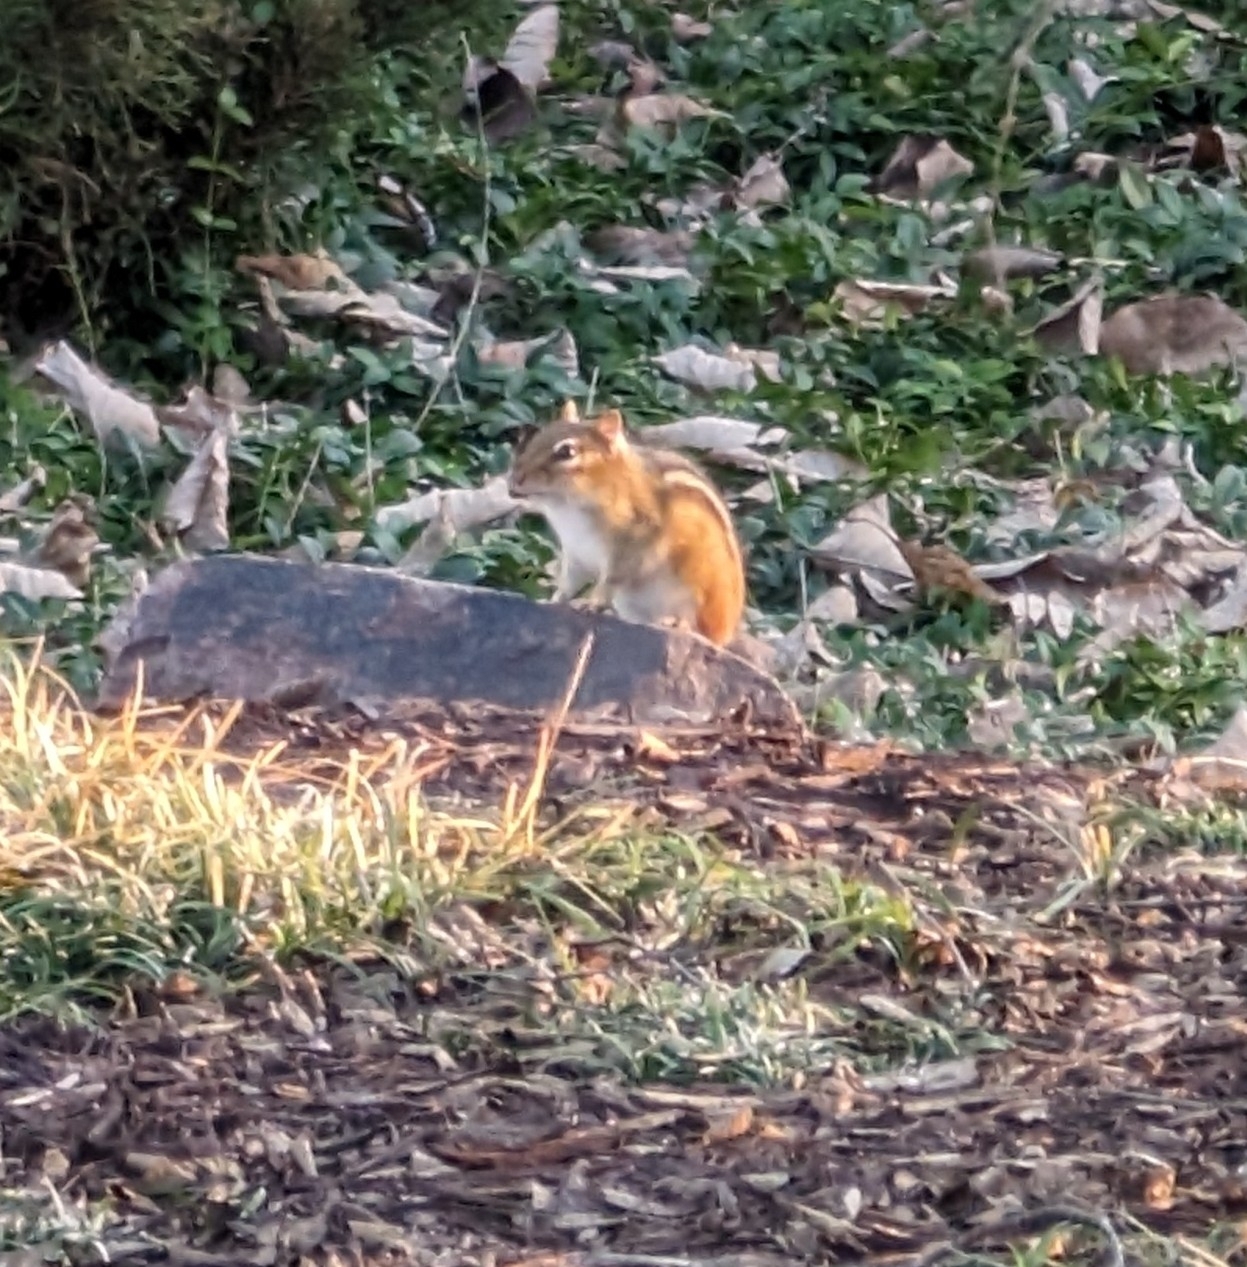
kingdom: Animalia
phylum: Chordata
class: Mammalia
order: Rodentia
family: Sciuridae
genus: Tamias
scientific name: Tamias striatus
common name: Eastern chipmunk
